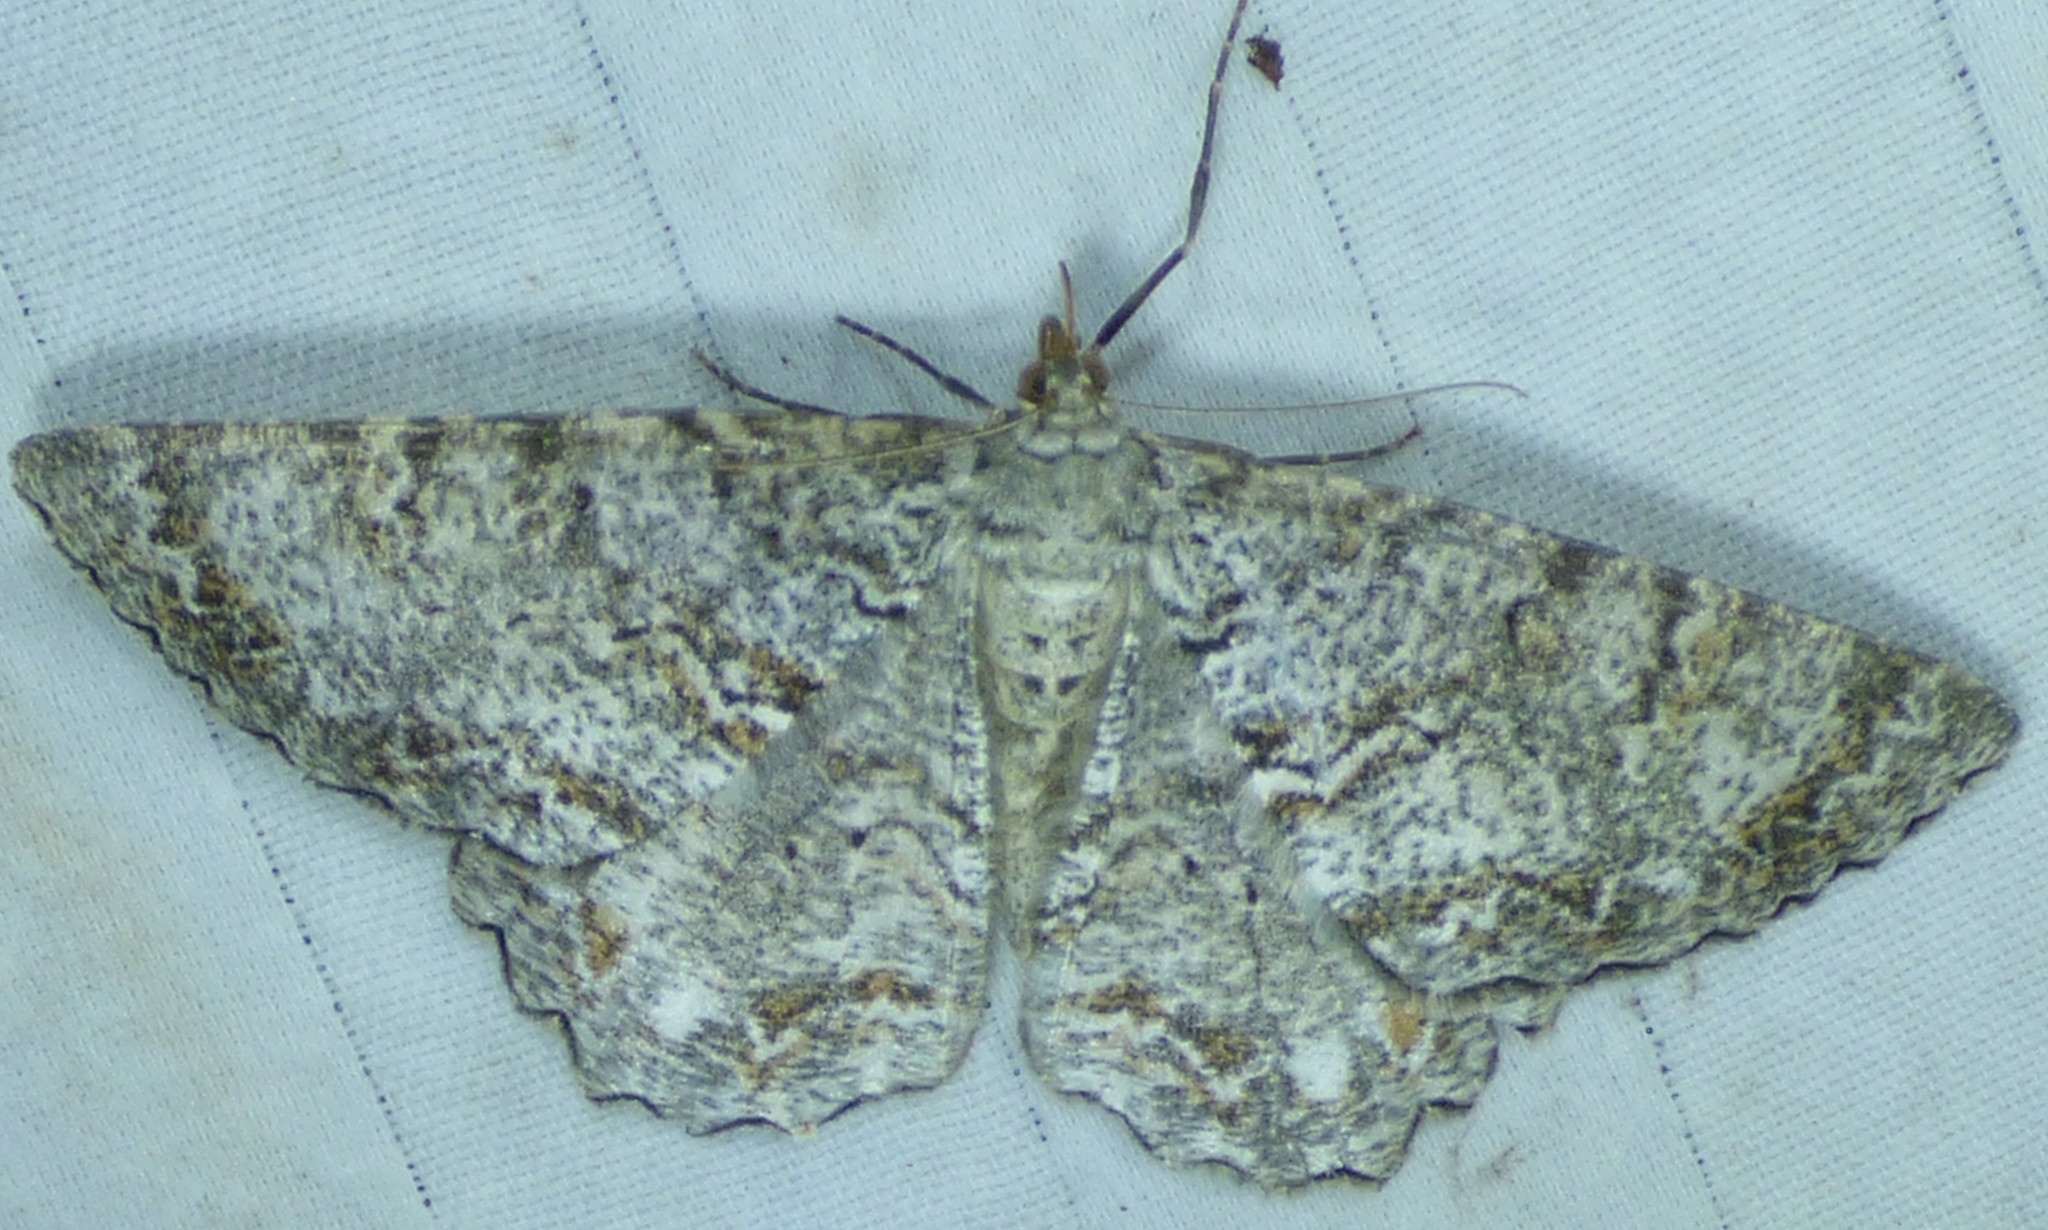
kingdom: Animalia
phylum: Arthropoda
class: Insecta
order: Lepidoptera
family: Geometridae
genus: Epimecis
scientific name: Epimecis hortaria
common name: Tulip-tree beauty
